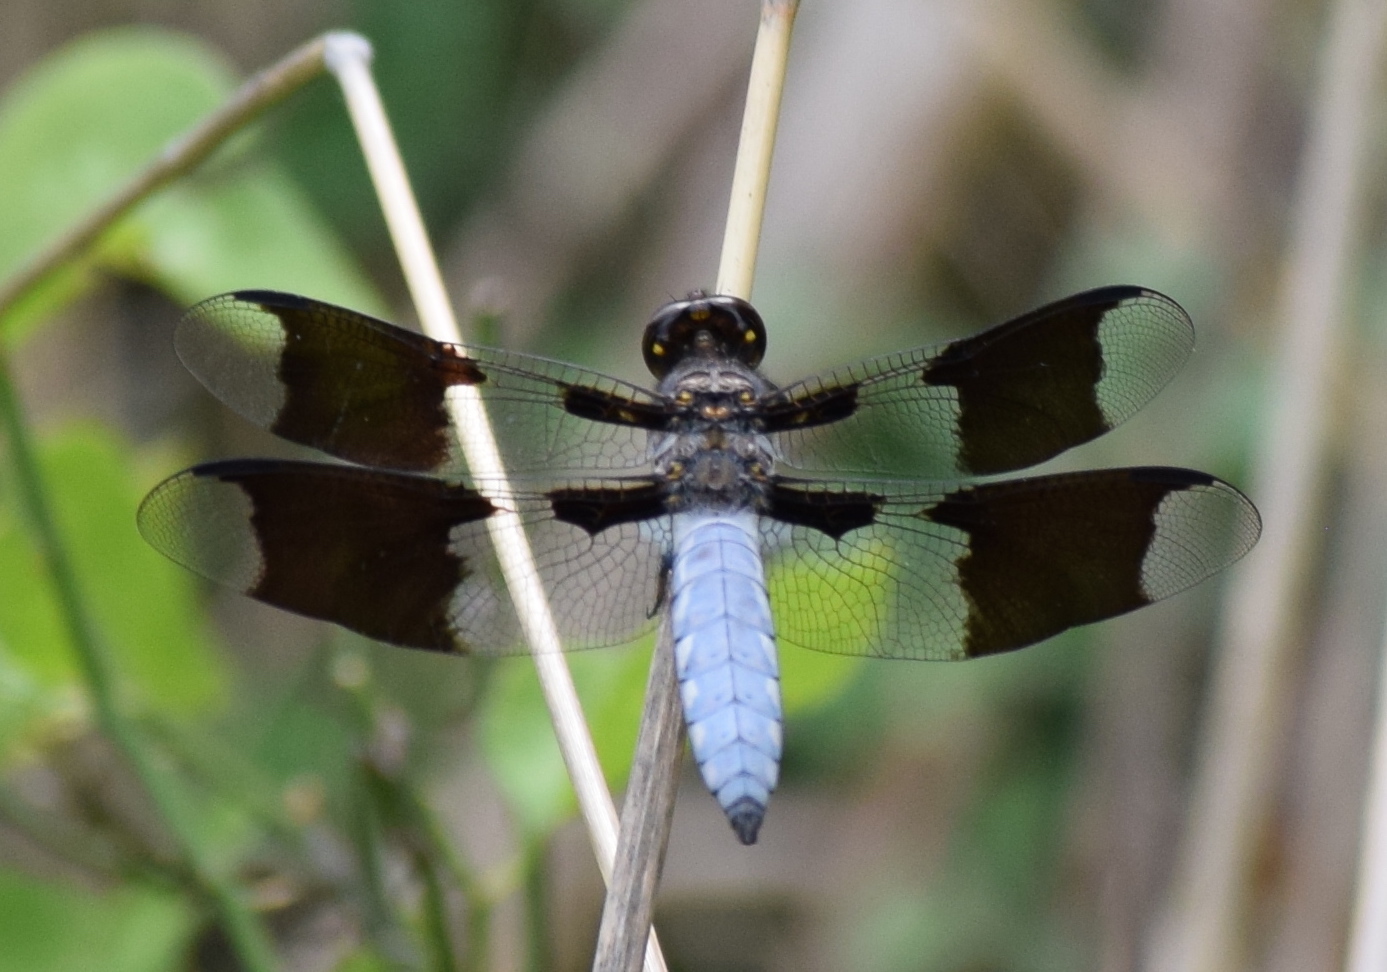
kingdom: Animalia
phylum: Arthropoda
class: Insecta
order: Odonata
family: Libellulidae
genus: Plathemis
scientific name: Plathemis lydia
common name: Common whitetail
